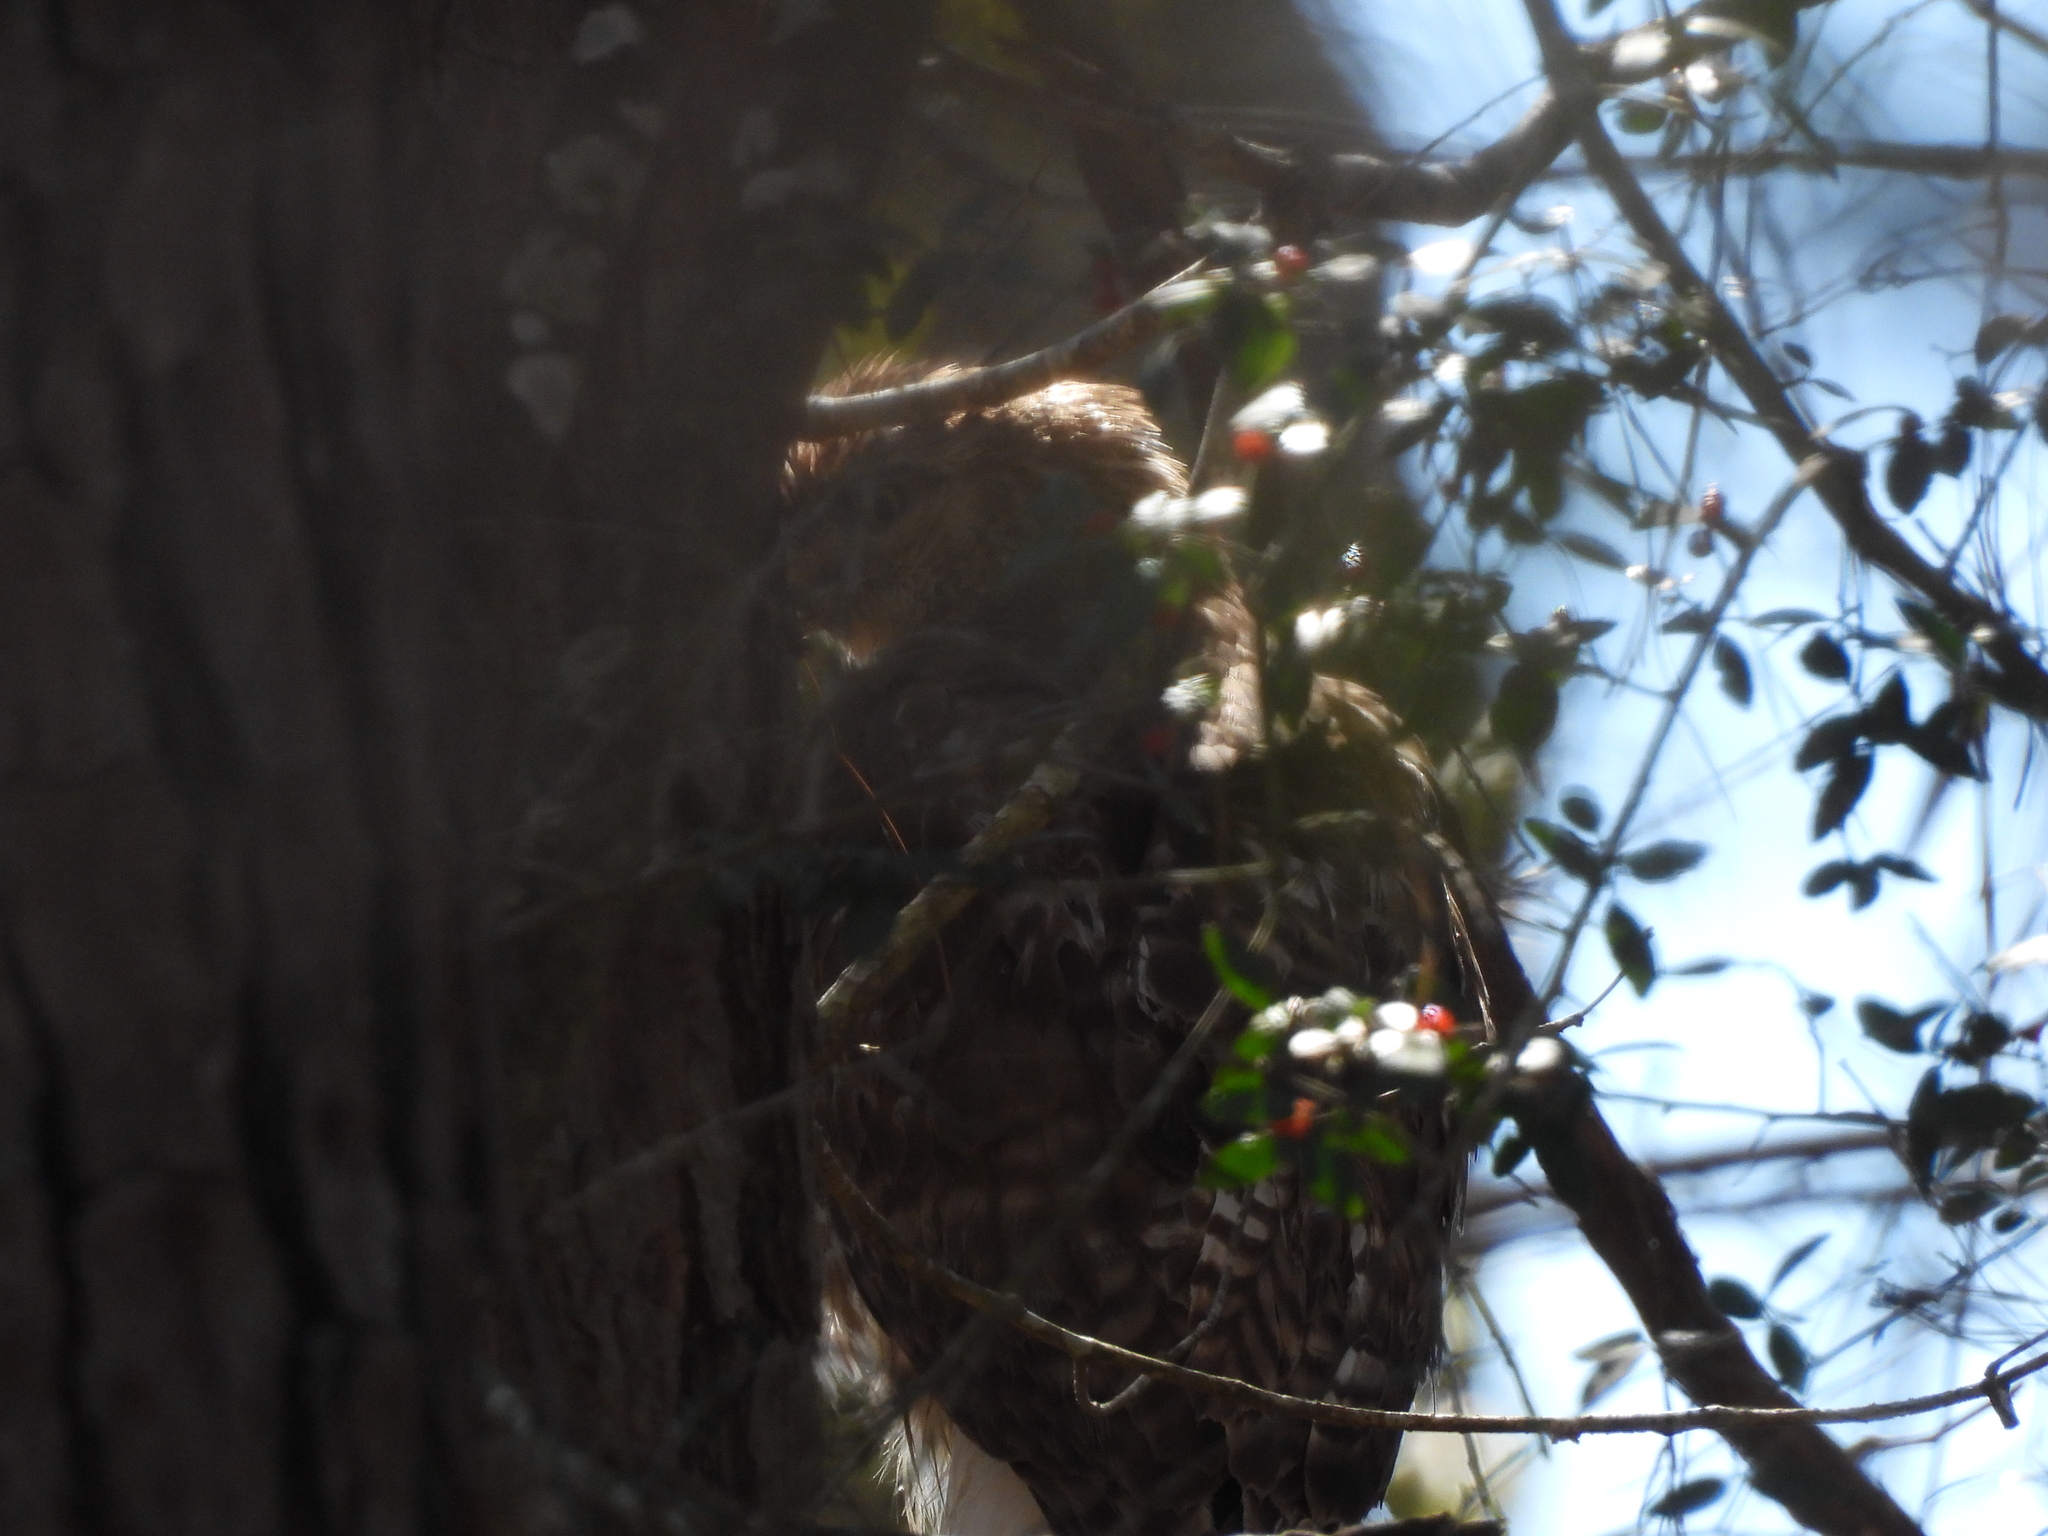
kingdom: Animalia
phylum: Chordata
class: Aves
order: Accipitriformes
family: Accipitridae
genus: Buteo
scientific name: Buteo jamaicensis
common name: Red-tailed hawk
